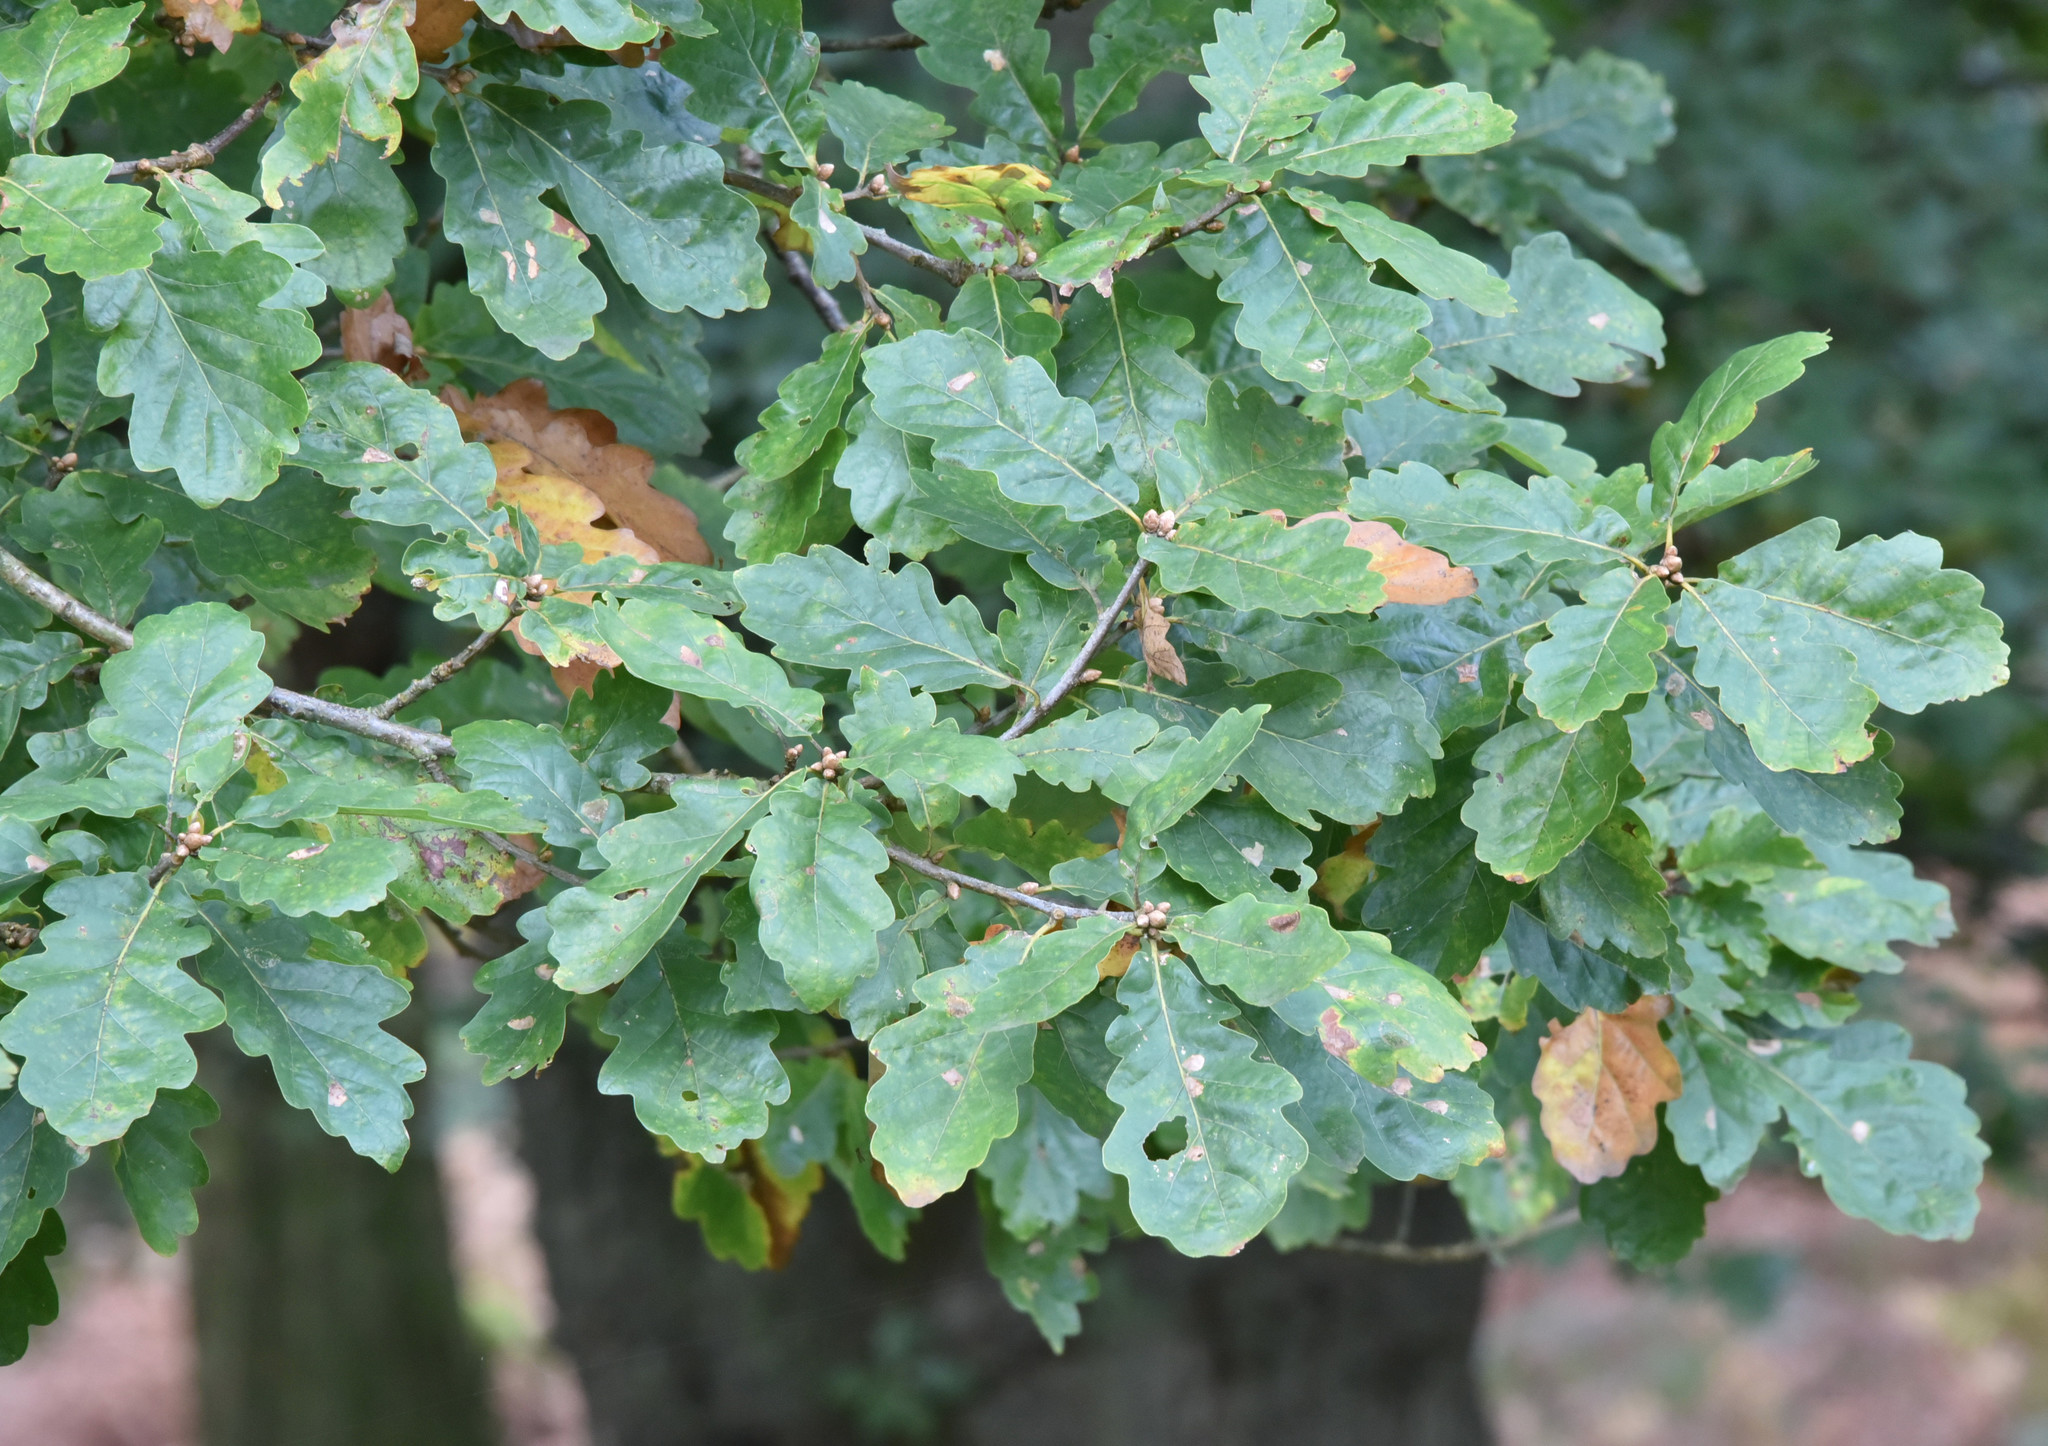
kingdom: Plantae
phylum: Tracheophyta
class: Magnoliopsida
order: Fagales
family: Fagaceae
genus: Quercus
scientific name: Quercus rosacea
